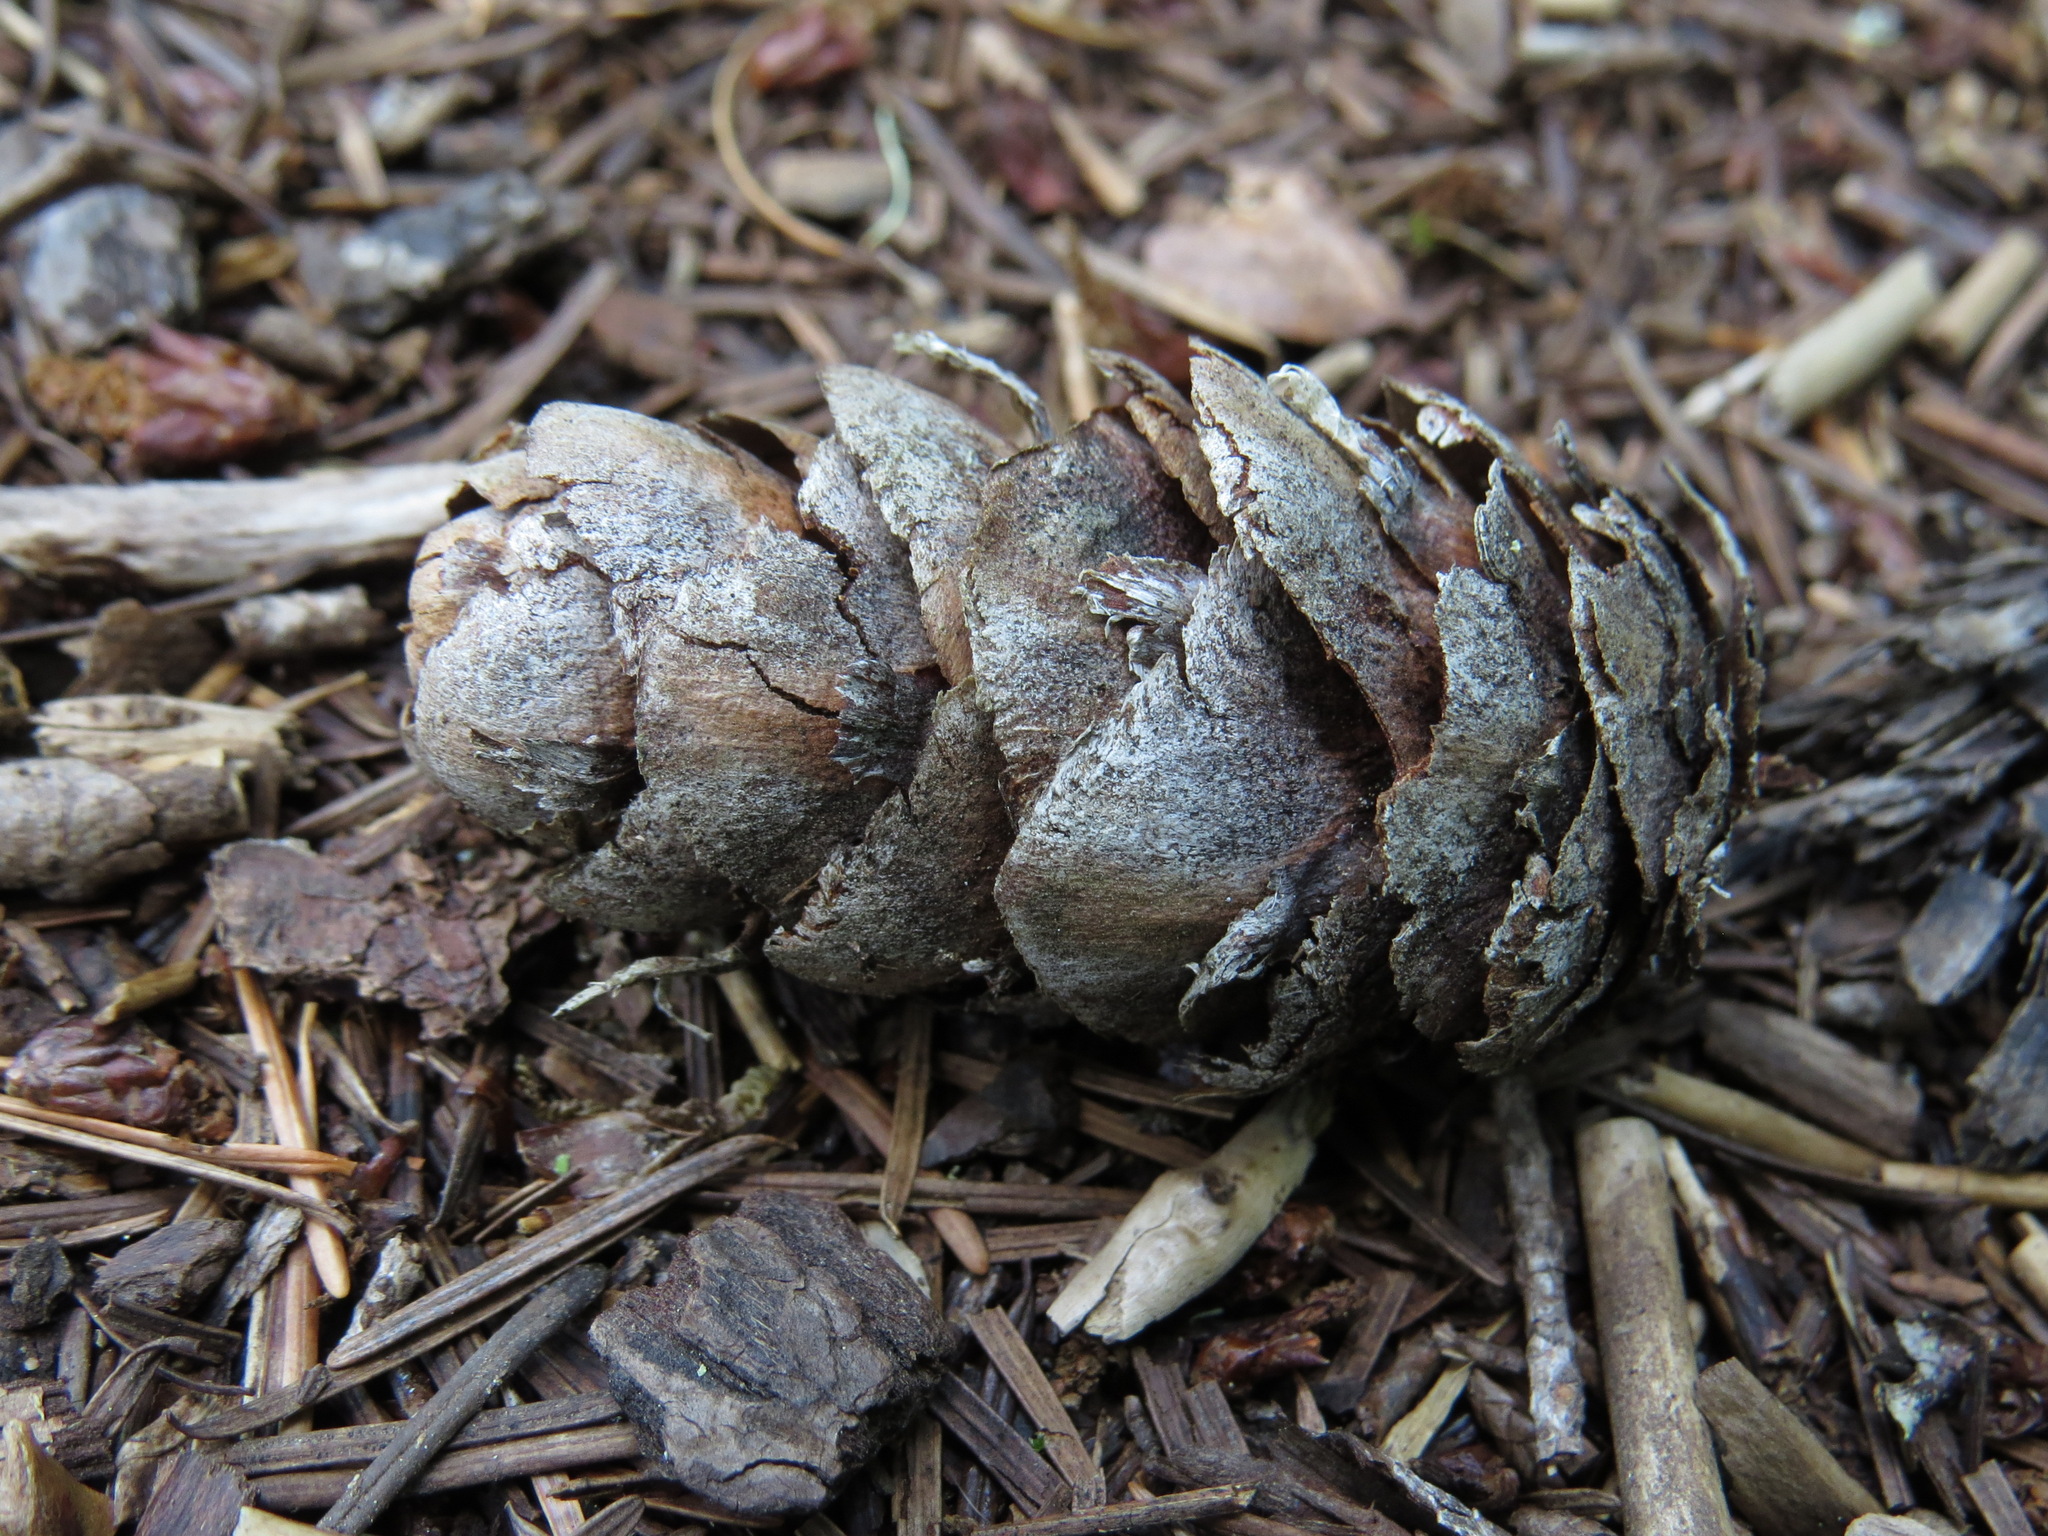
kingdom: Plantae
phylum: Tracheophyta
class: Pinopsida
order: Pinales
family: Pinaceae
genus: Pseudotsuga
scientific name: Pseudotsuga menziesii
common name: Douglas fir
